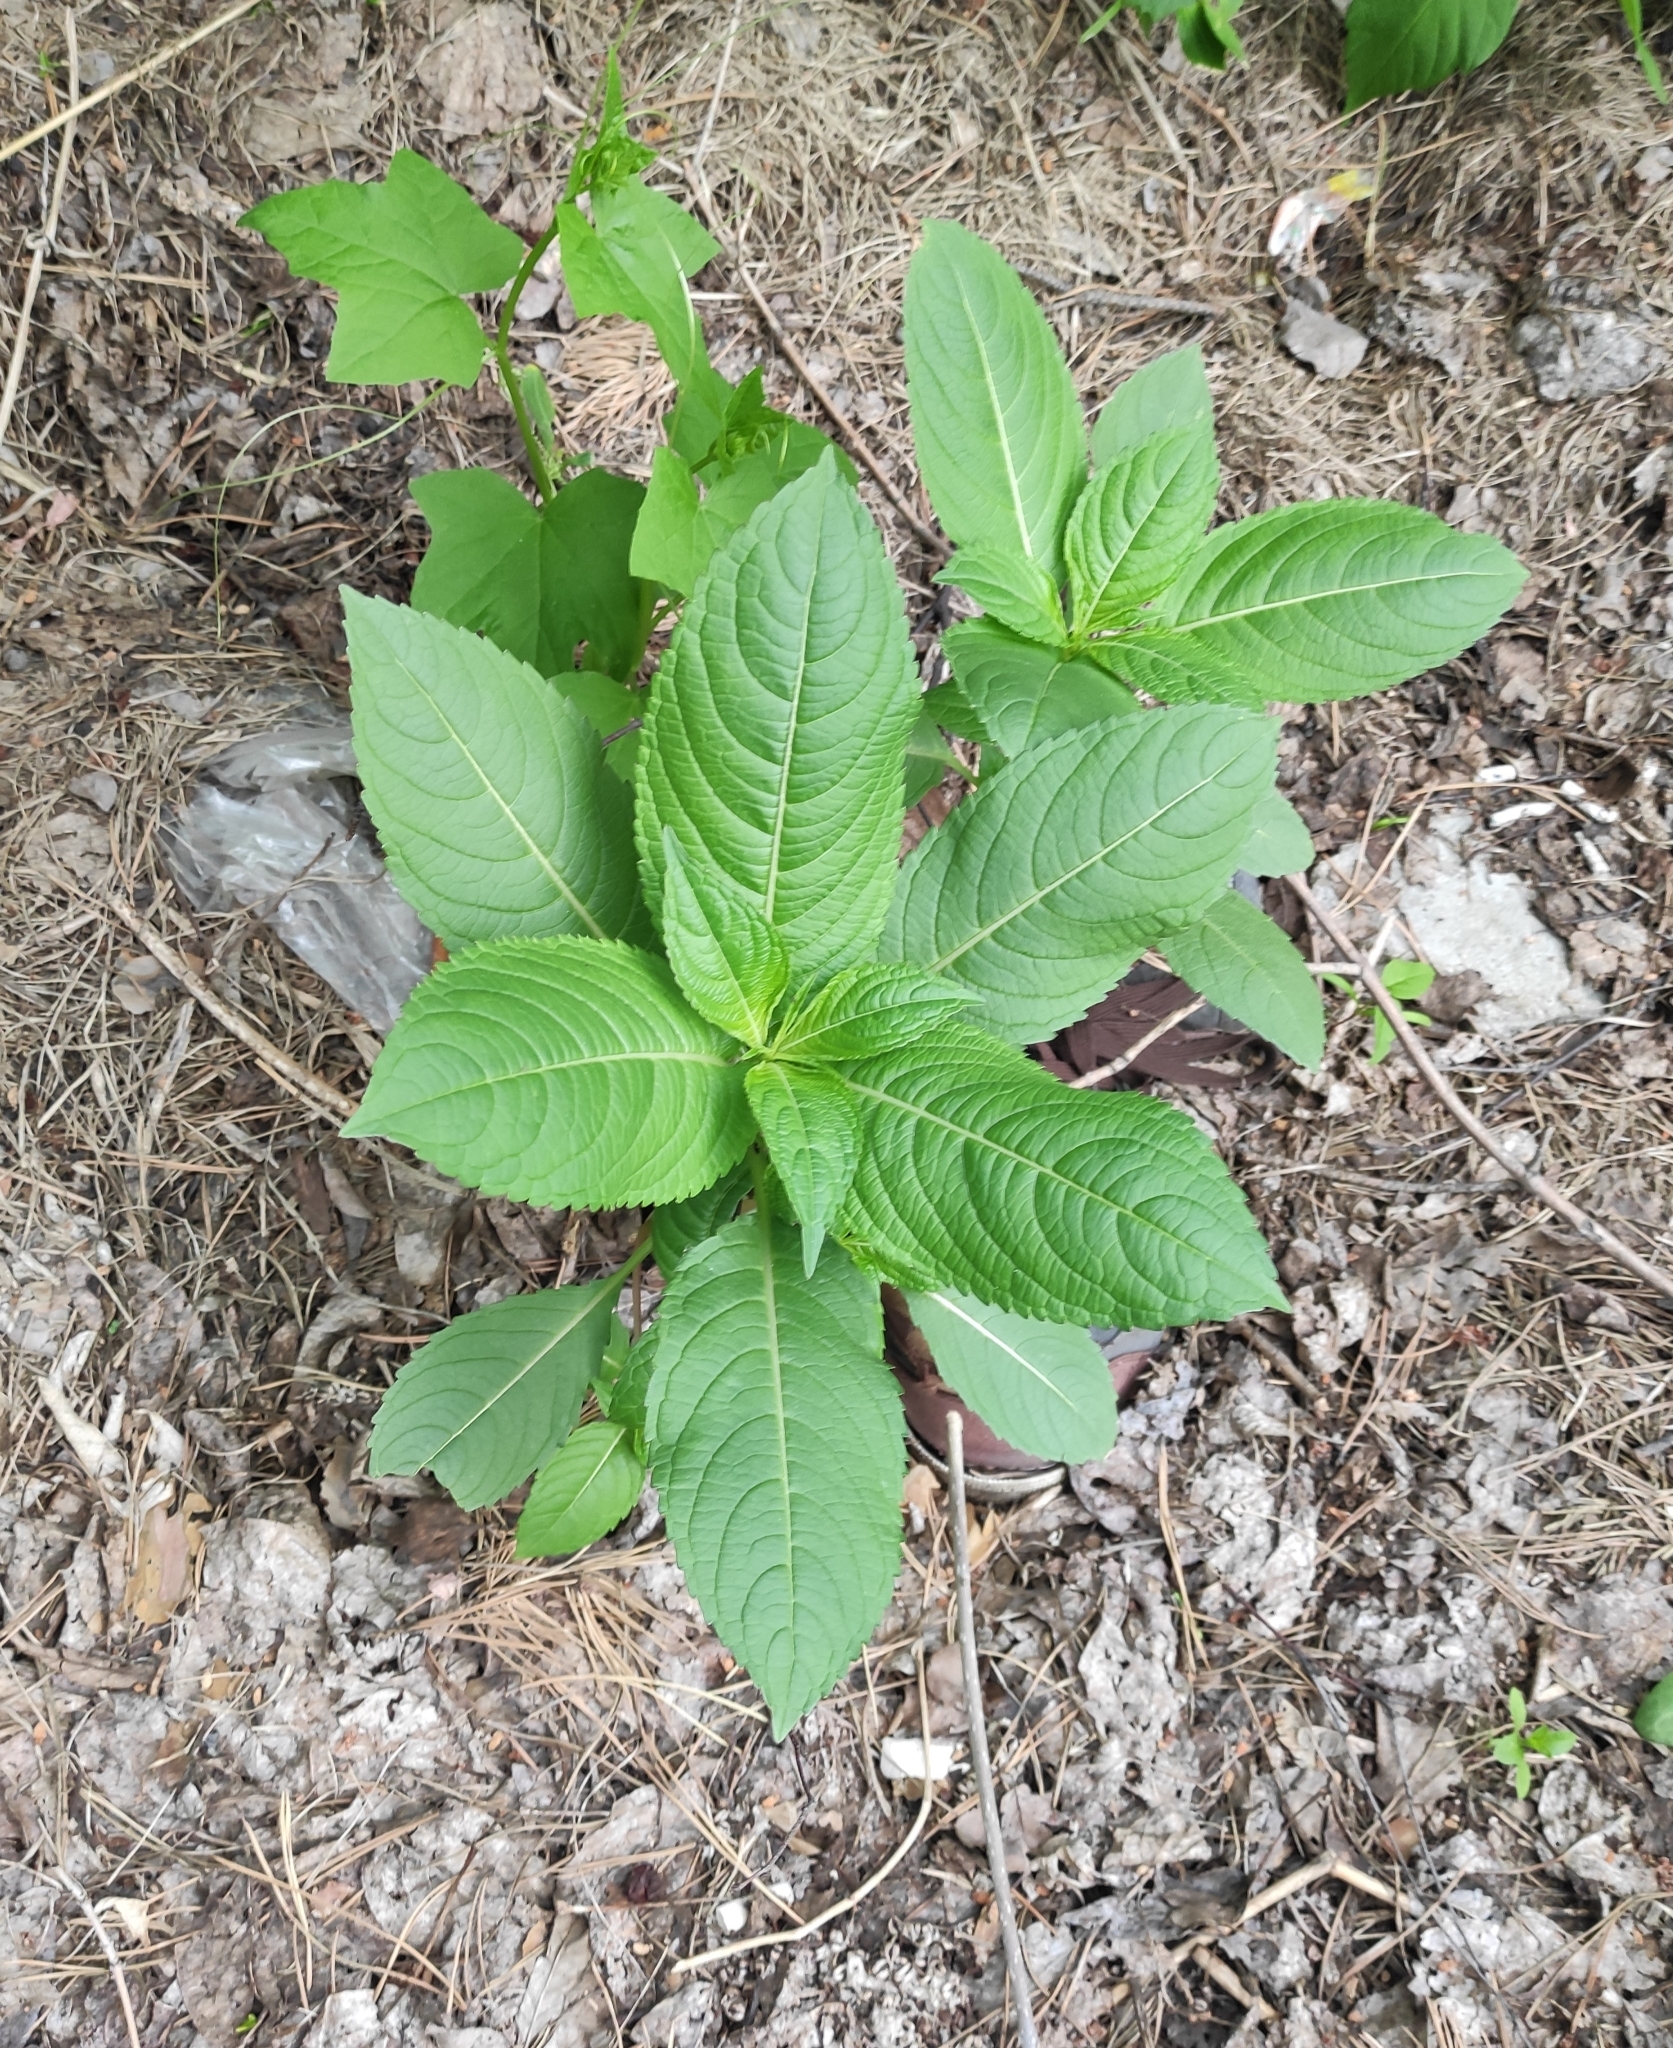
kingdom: Plantae
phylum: Tracheophyta
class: Magnoliopsida
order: Ericales
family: Balsaminaceae
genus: Impatiens
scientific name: Impatiens glandulifera
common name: Himalayan balsam
